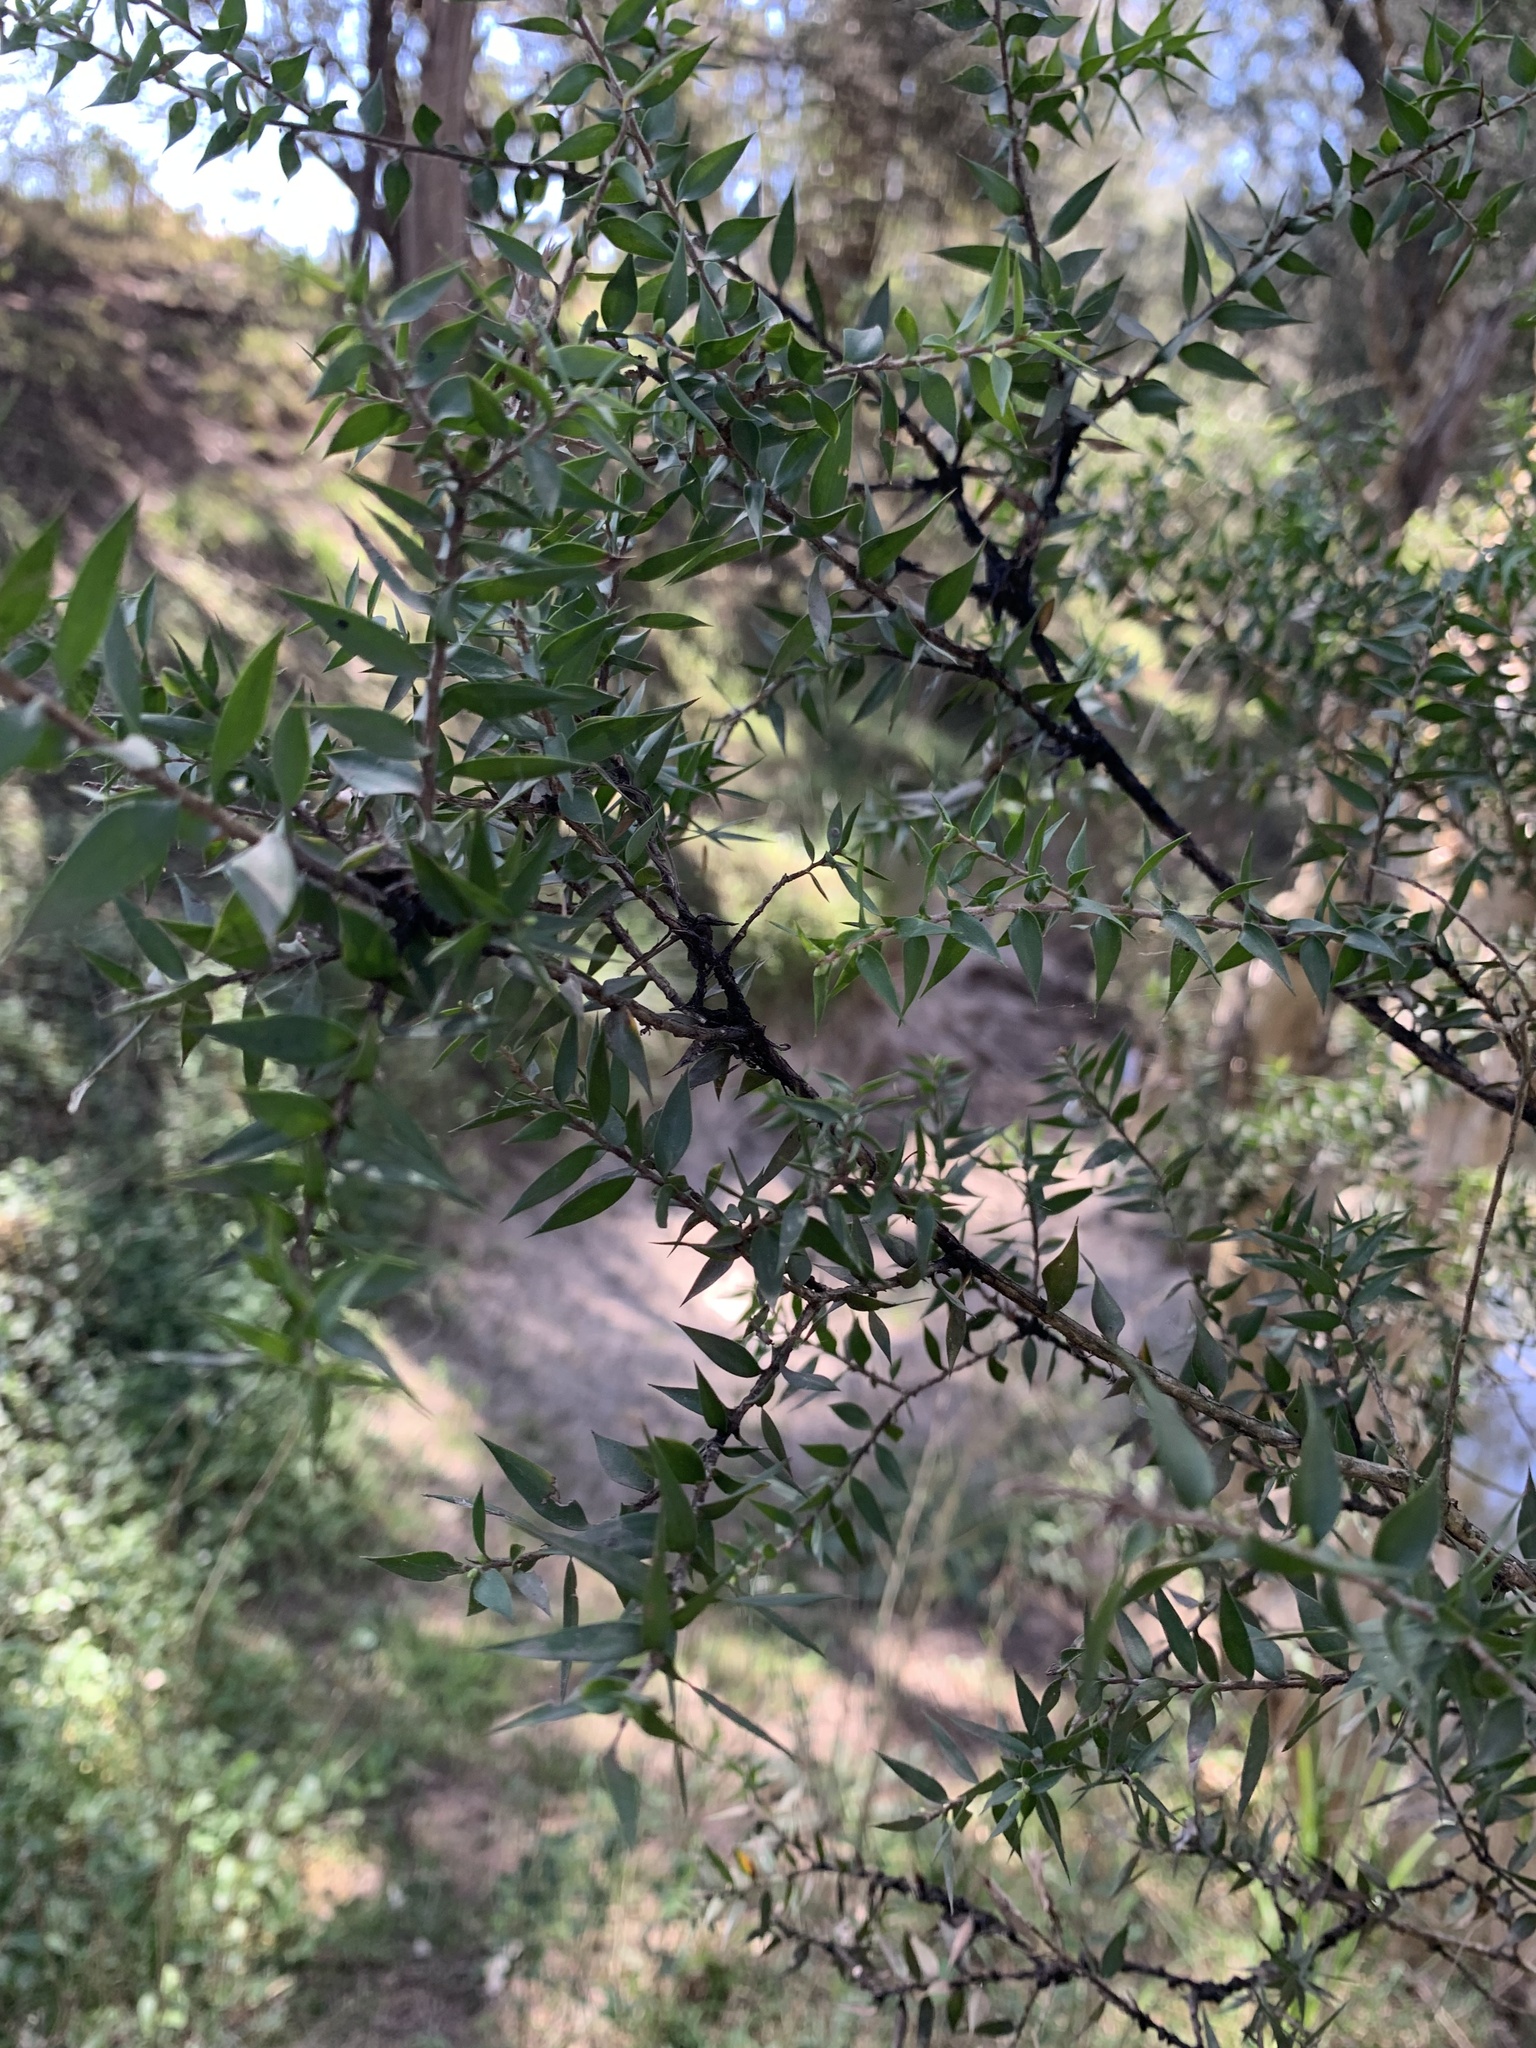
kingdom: Plantae
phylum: Tracheophyta
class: Magnoliopsida
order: Myrtales
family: Myrtaceae
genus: Melaleuca
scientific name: Melaleuca styphelioides
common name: Prickly paperbark
